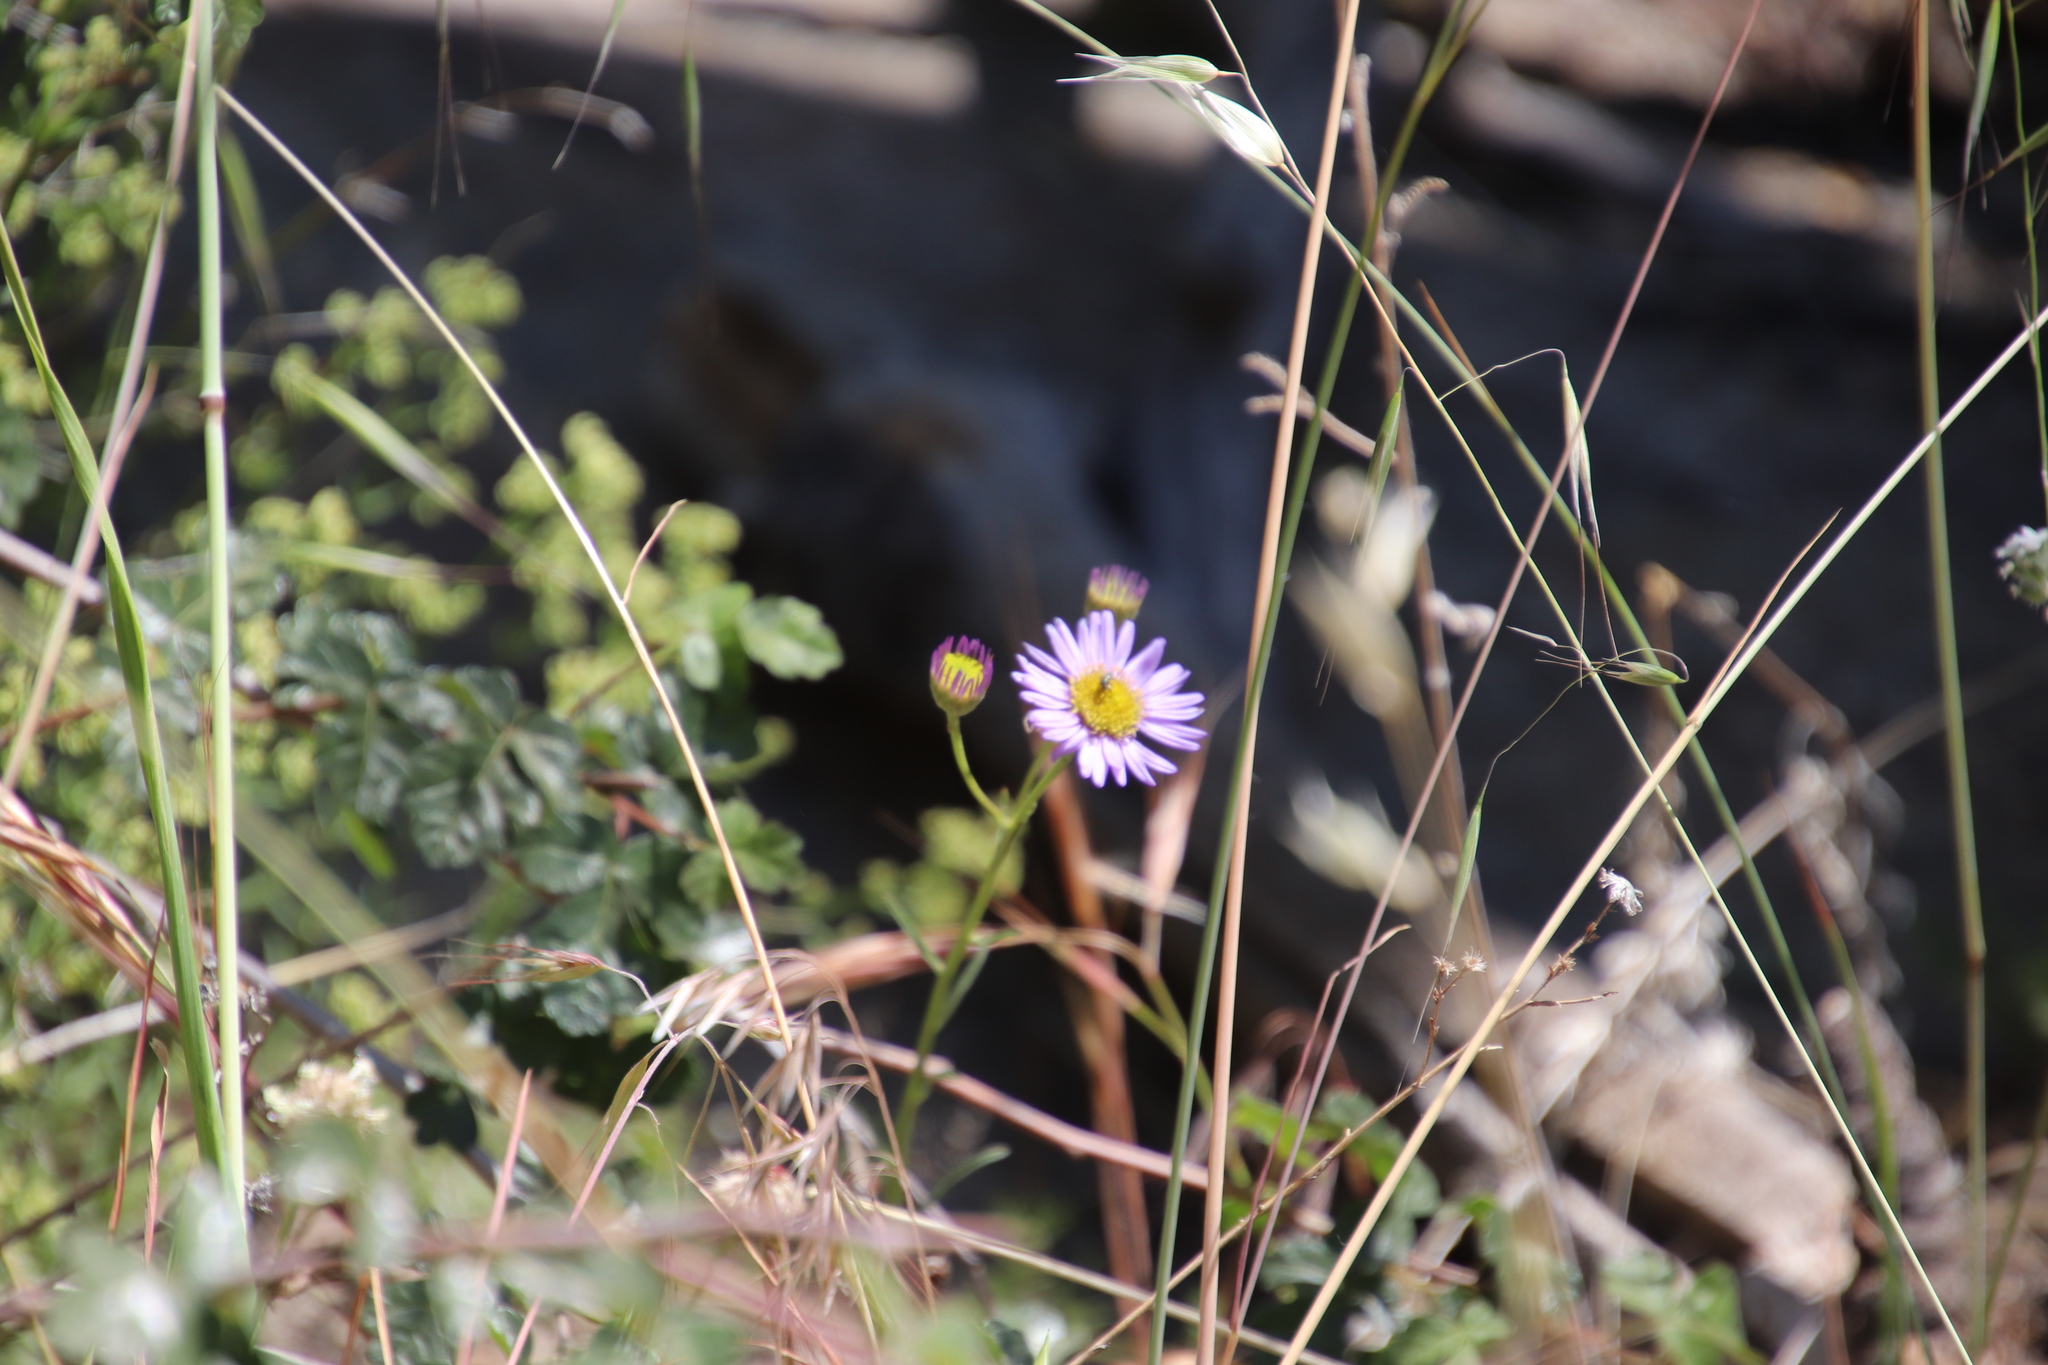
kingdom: Plantae
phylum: Tracheophyta
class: Magnoliopsida
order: Asterales
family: Asteraceae
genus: Erigeron
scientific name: Erigeron foliosus
